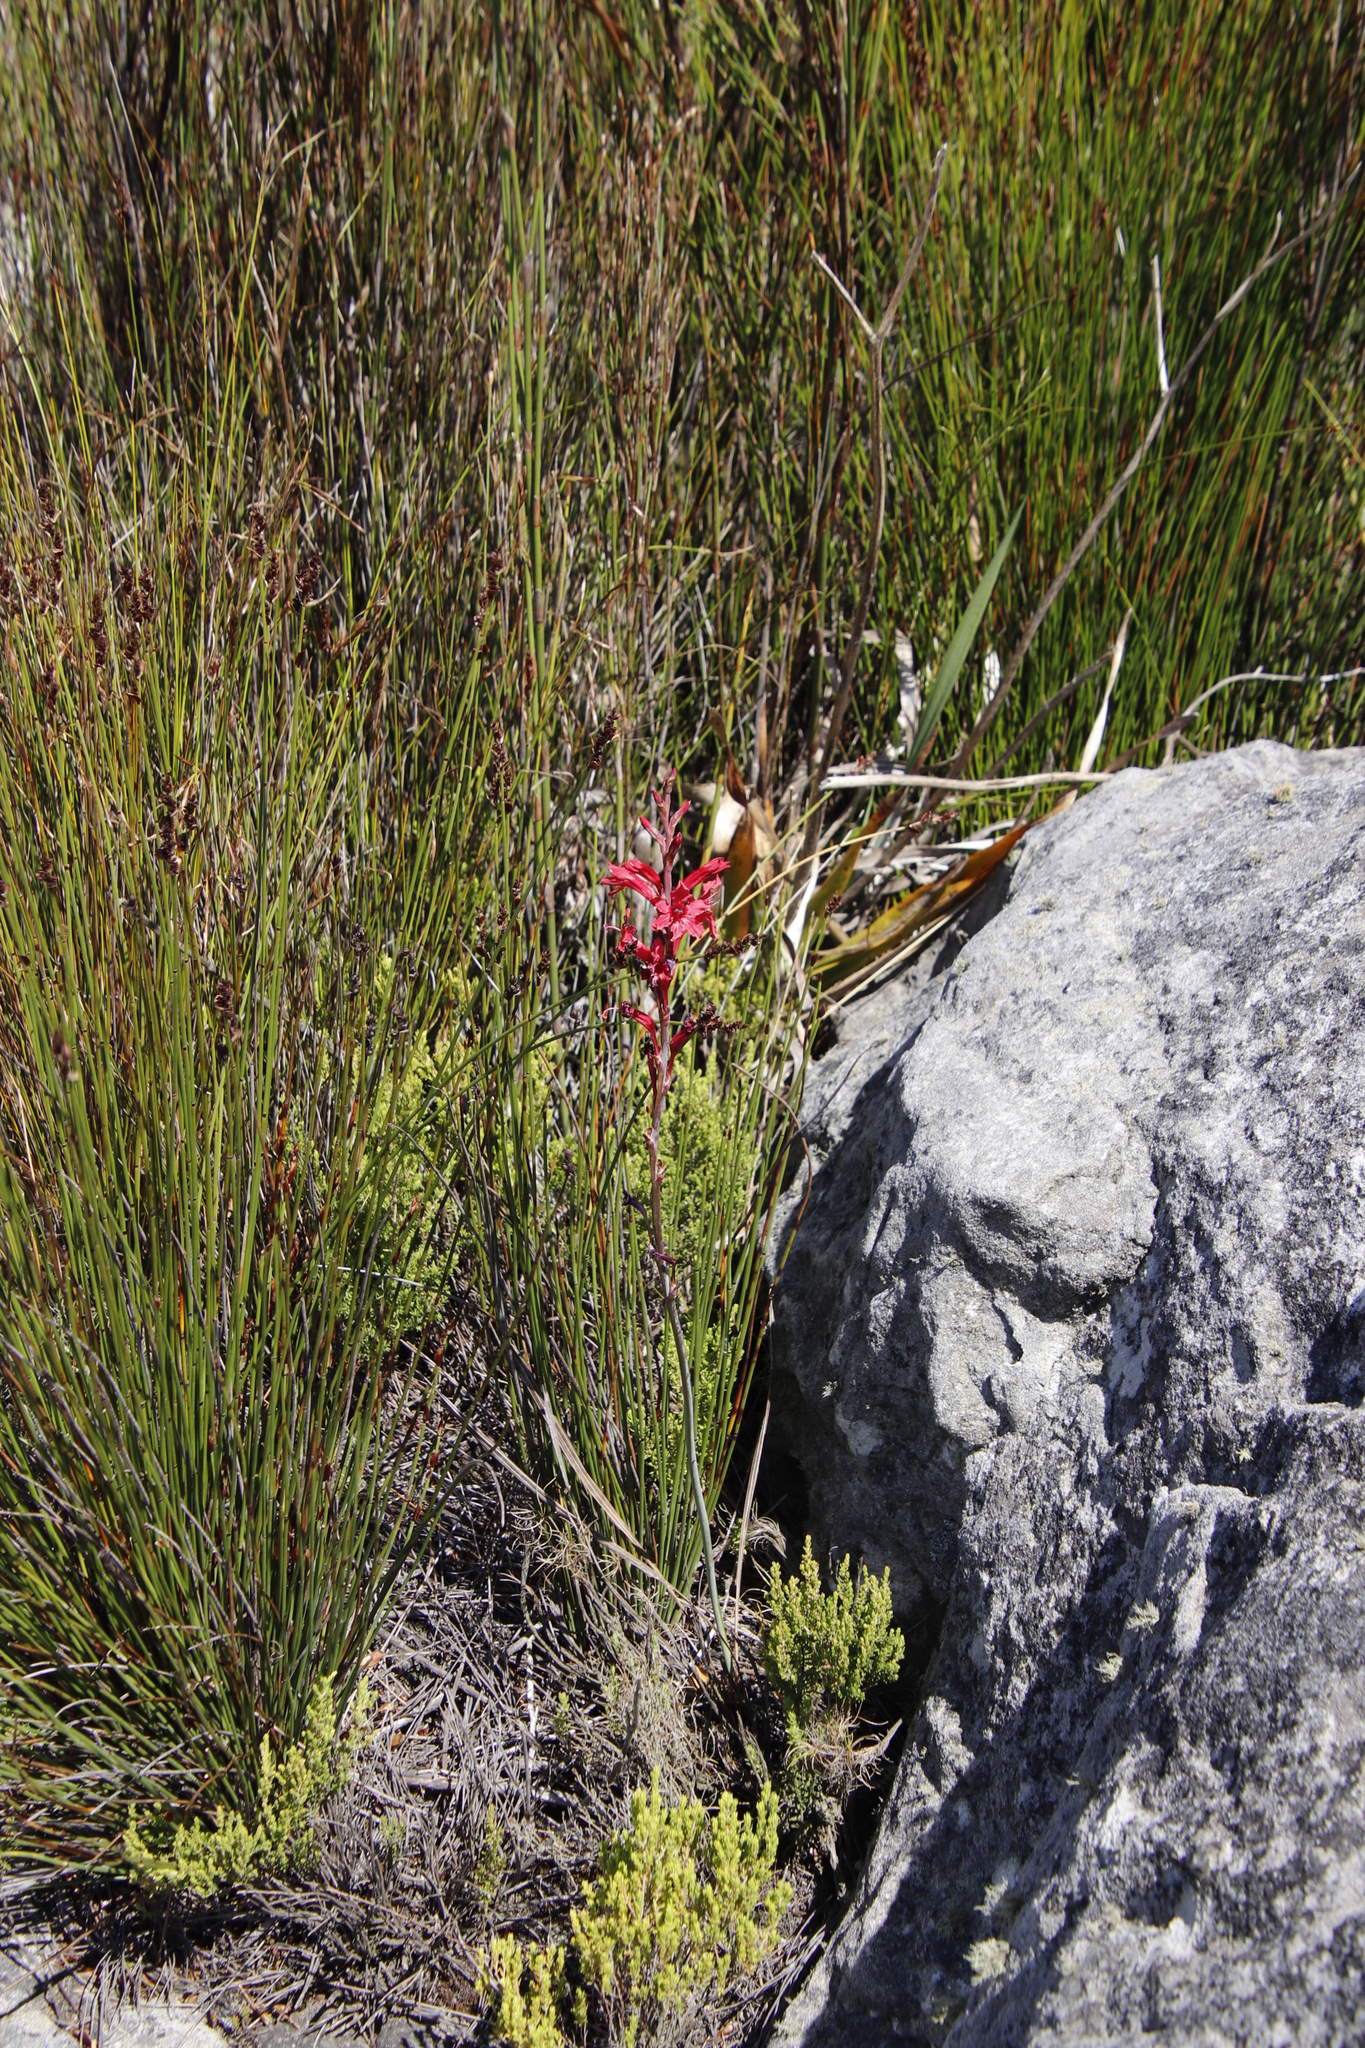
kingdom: Plantae
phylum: Tracheophyta
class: Liliopsida
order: Asparagales
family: Iridaceae
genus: Tritoniopsis
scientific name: Tritoniopsis pulchra
